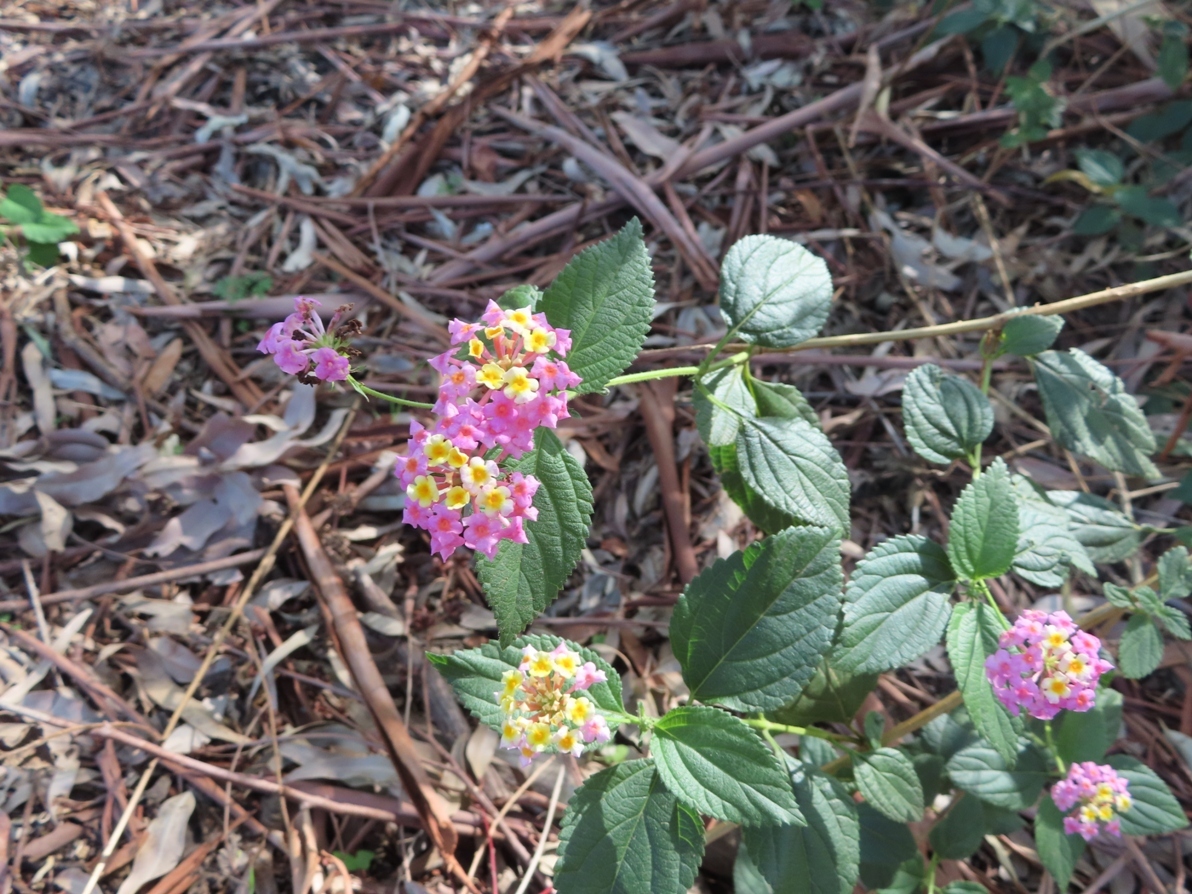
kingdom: Plantae
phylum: Tracheophyta
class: Magnoliopsida
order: Lamiales
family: Verbenaceae
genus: Lantana
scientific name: Lantana camara
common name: Lantana
